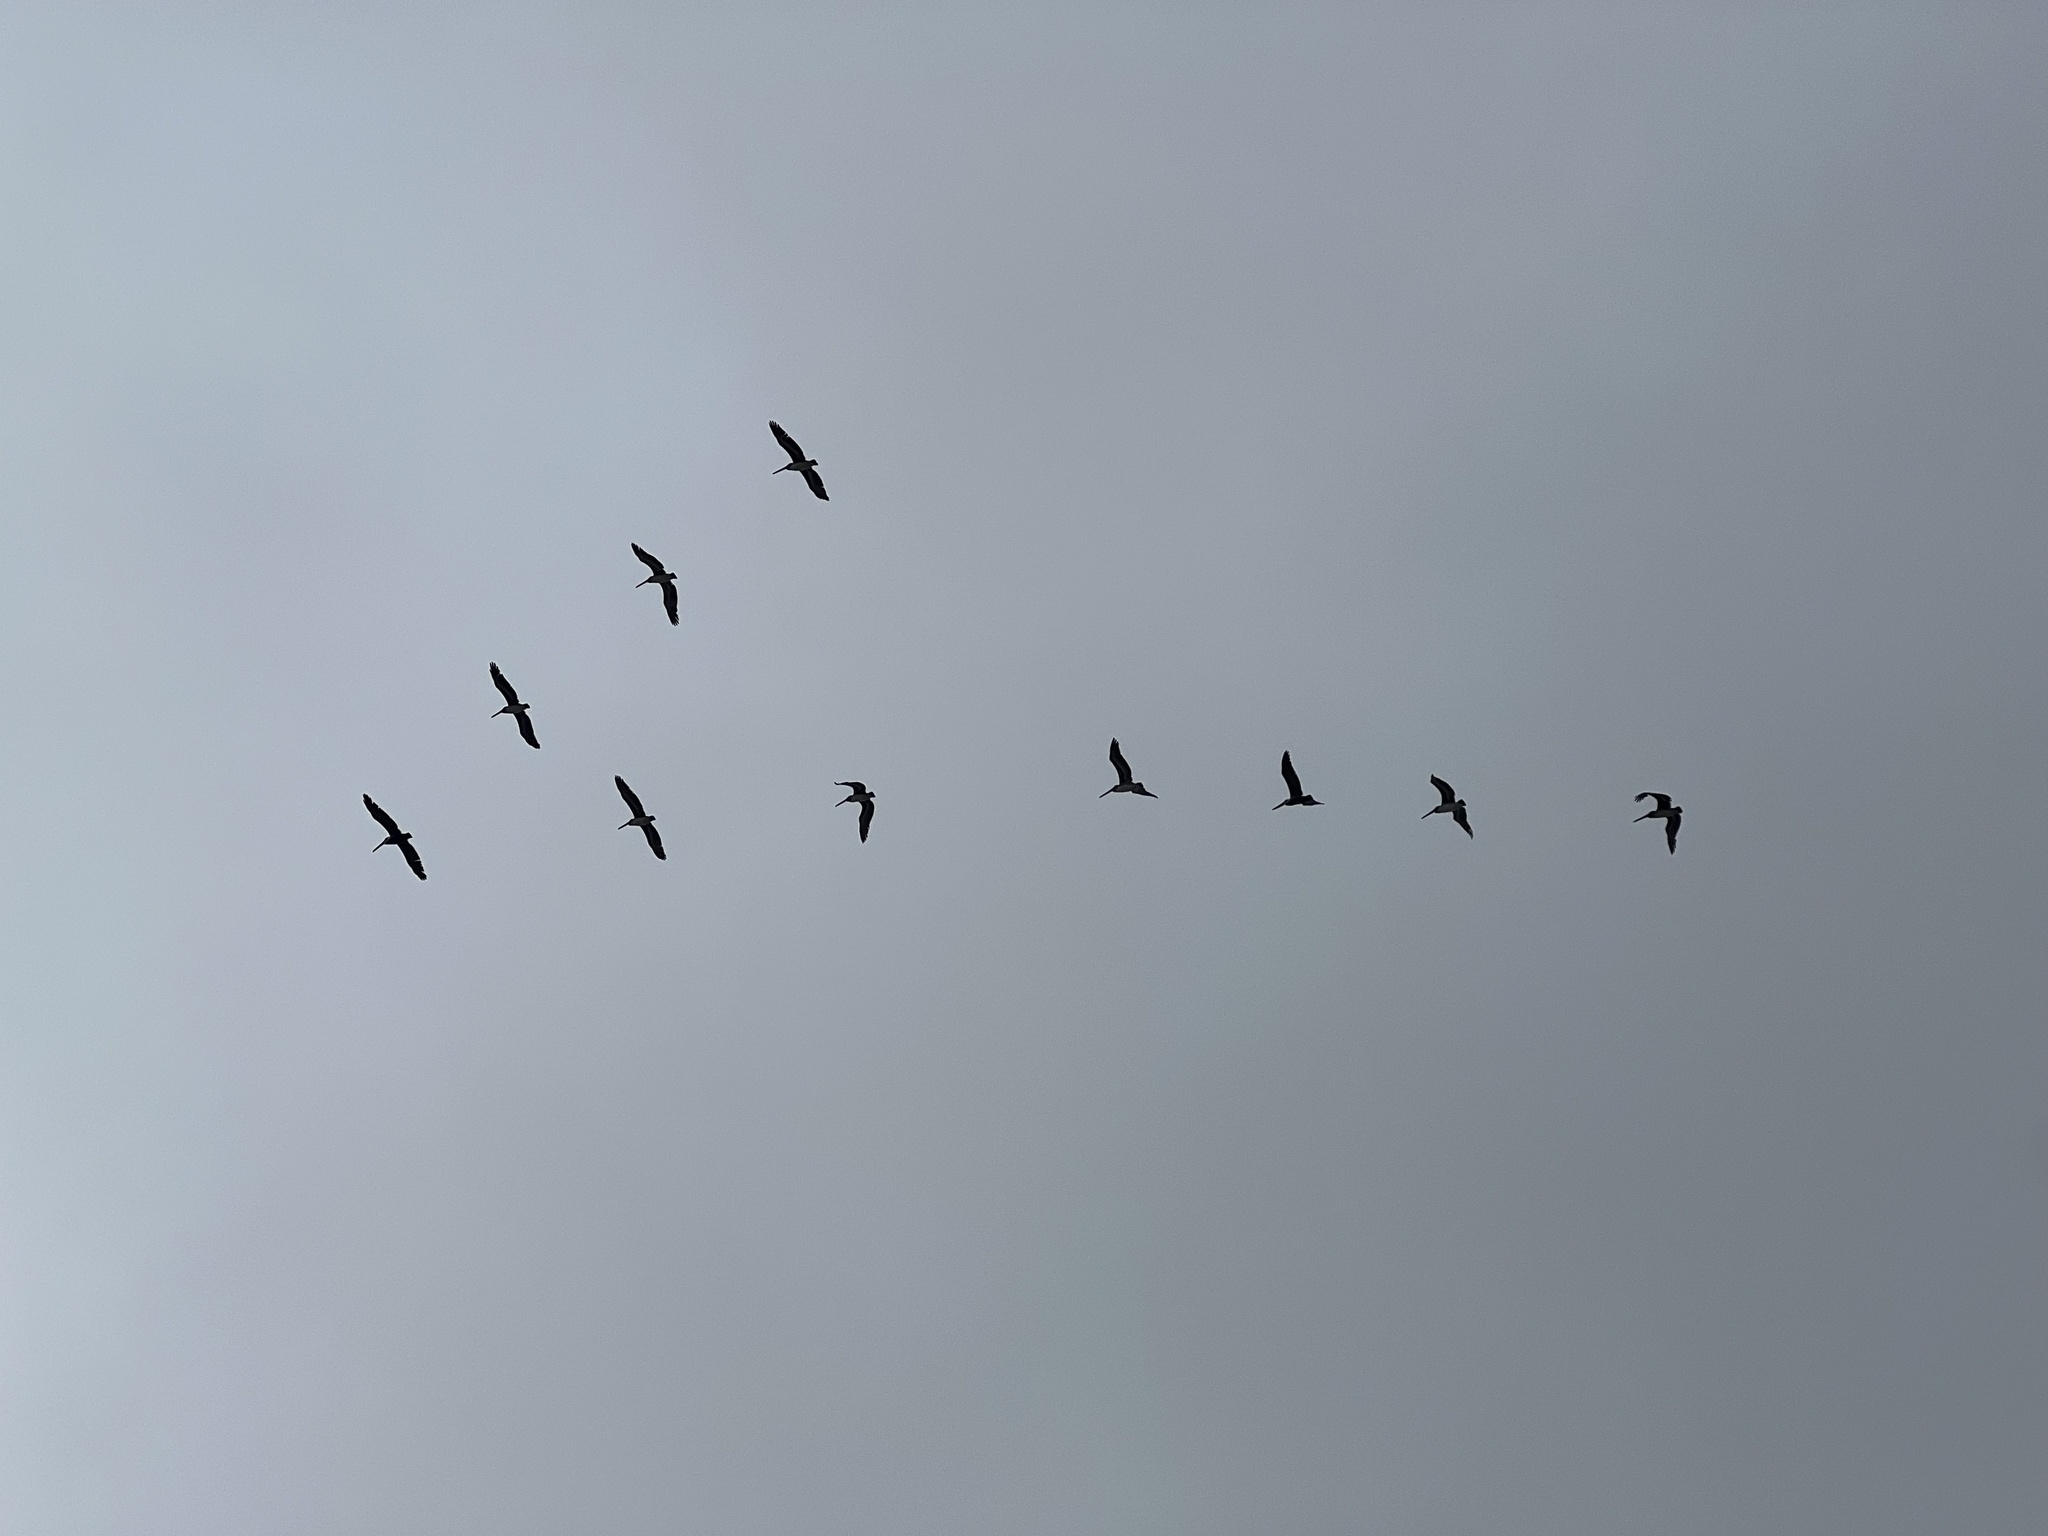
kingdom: Animalia
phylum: Chordata
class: Aves
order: Pelecaniformes
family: Pelecanidae
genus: Pelecanus
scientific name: Pelecanus occidentalis
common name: Brown pelican
